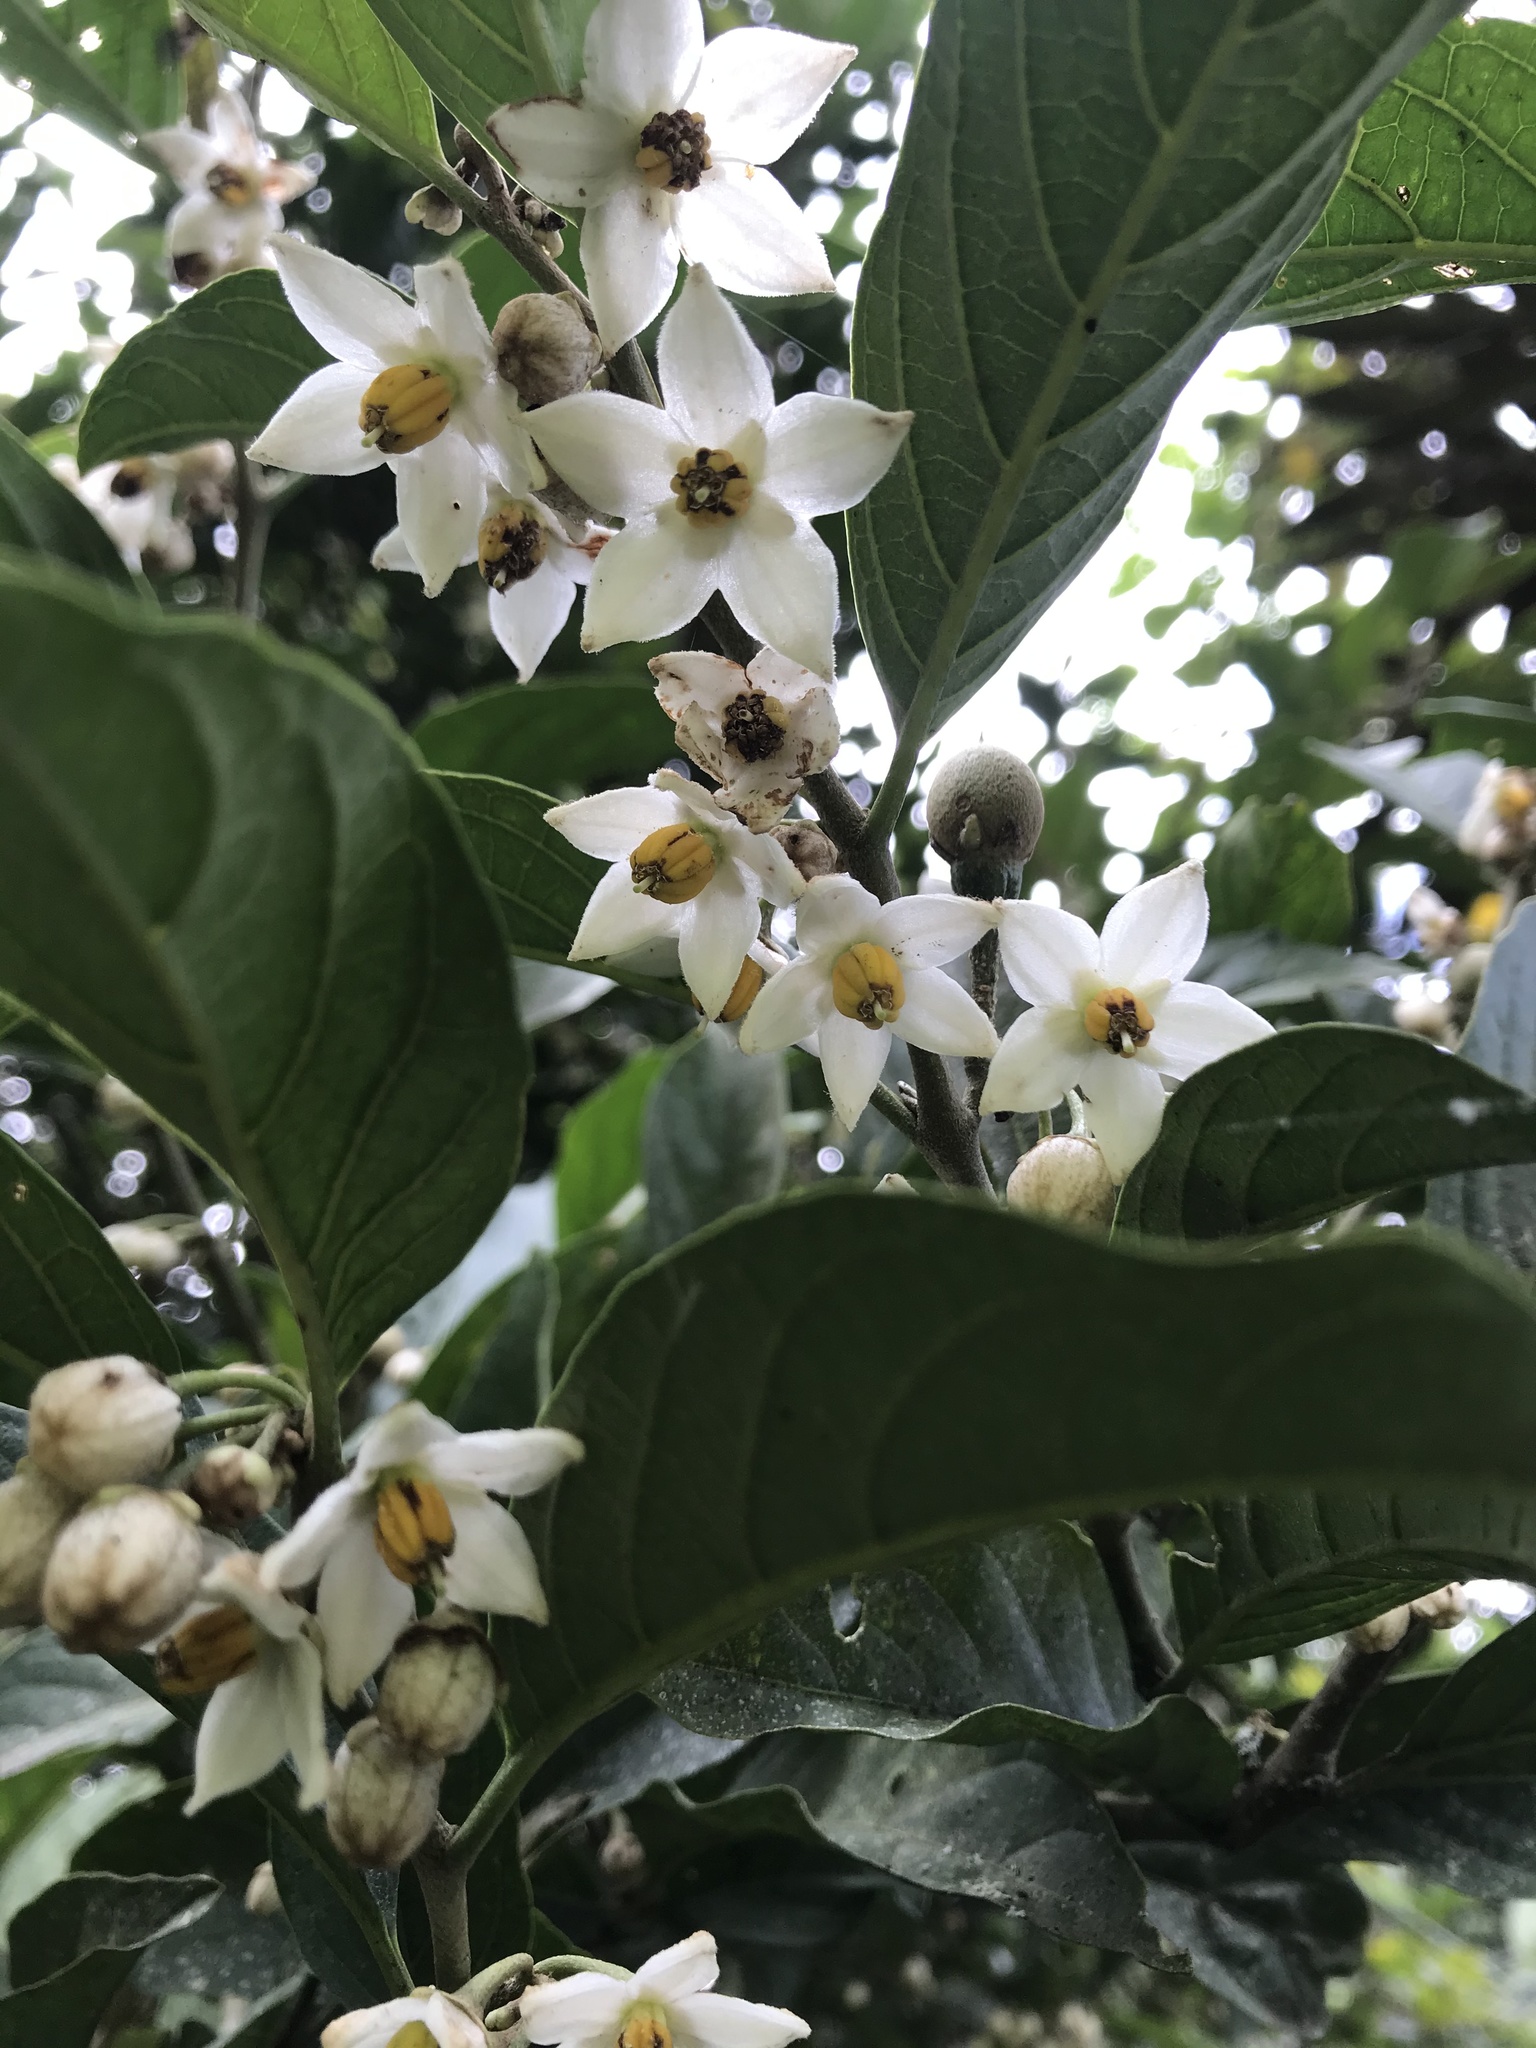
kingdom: Plantae
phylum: Tracheophyta
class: Magnoliopsida
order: Solanales
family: Solanaceae
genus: Solanum
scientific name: Solanum cornifolium
